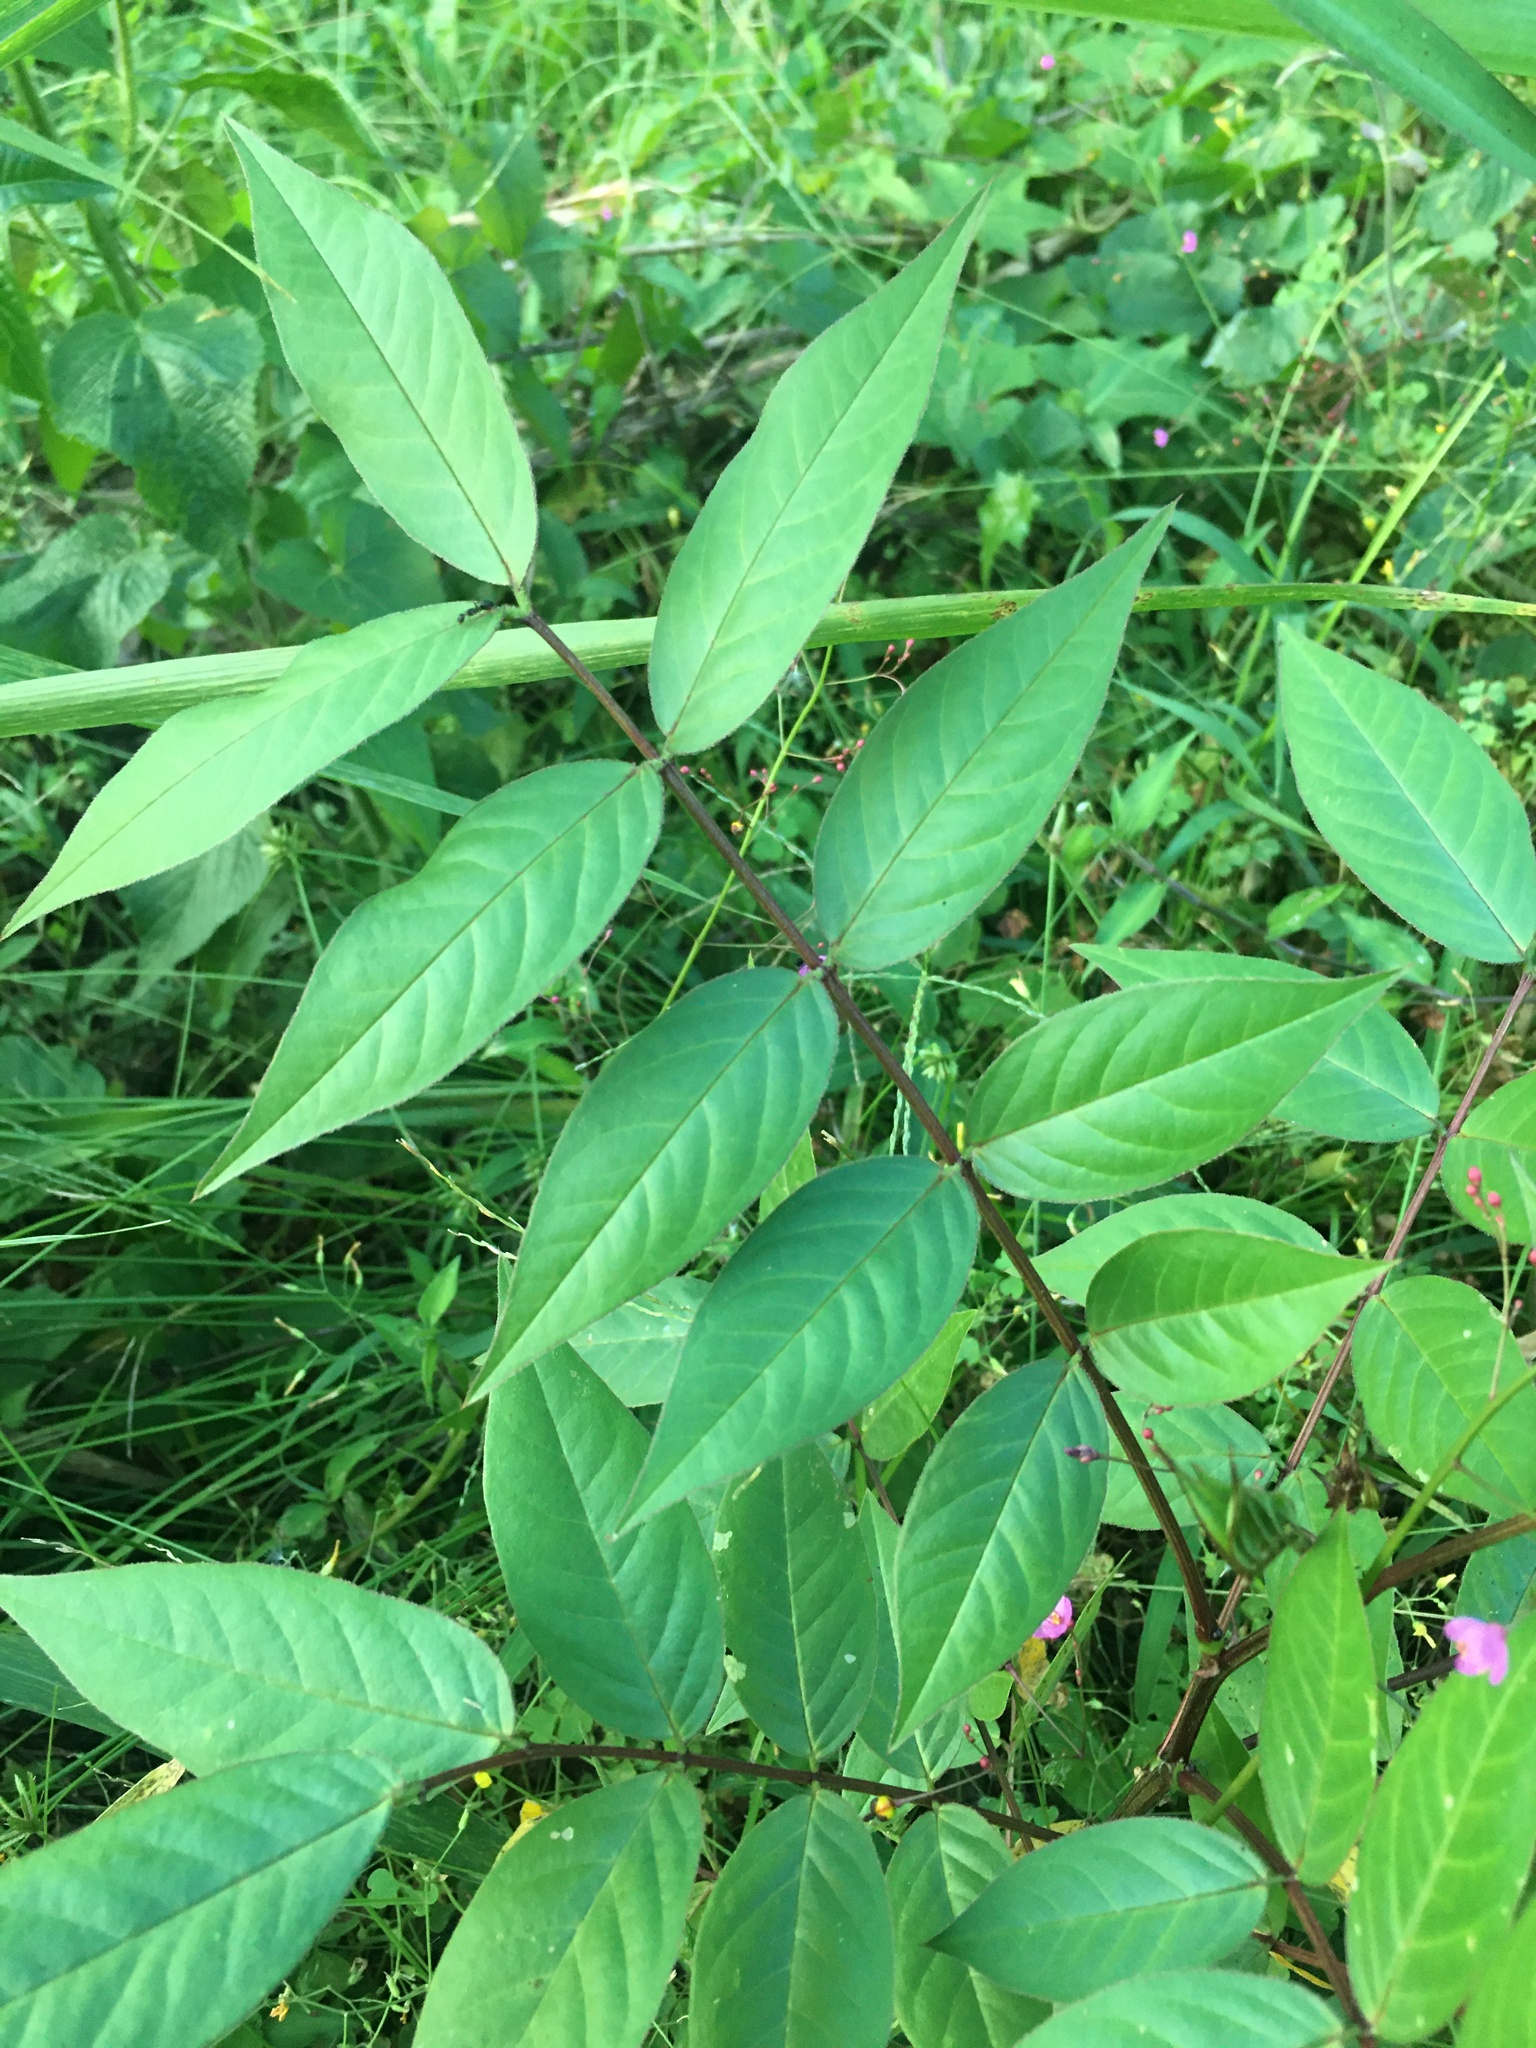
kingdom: Plantae
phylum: Tracheophyta
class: Magnoliopsida
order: Fabales
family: Fabaceae
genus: Senna
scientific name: Senna occidentalis
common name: Septicweed
